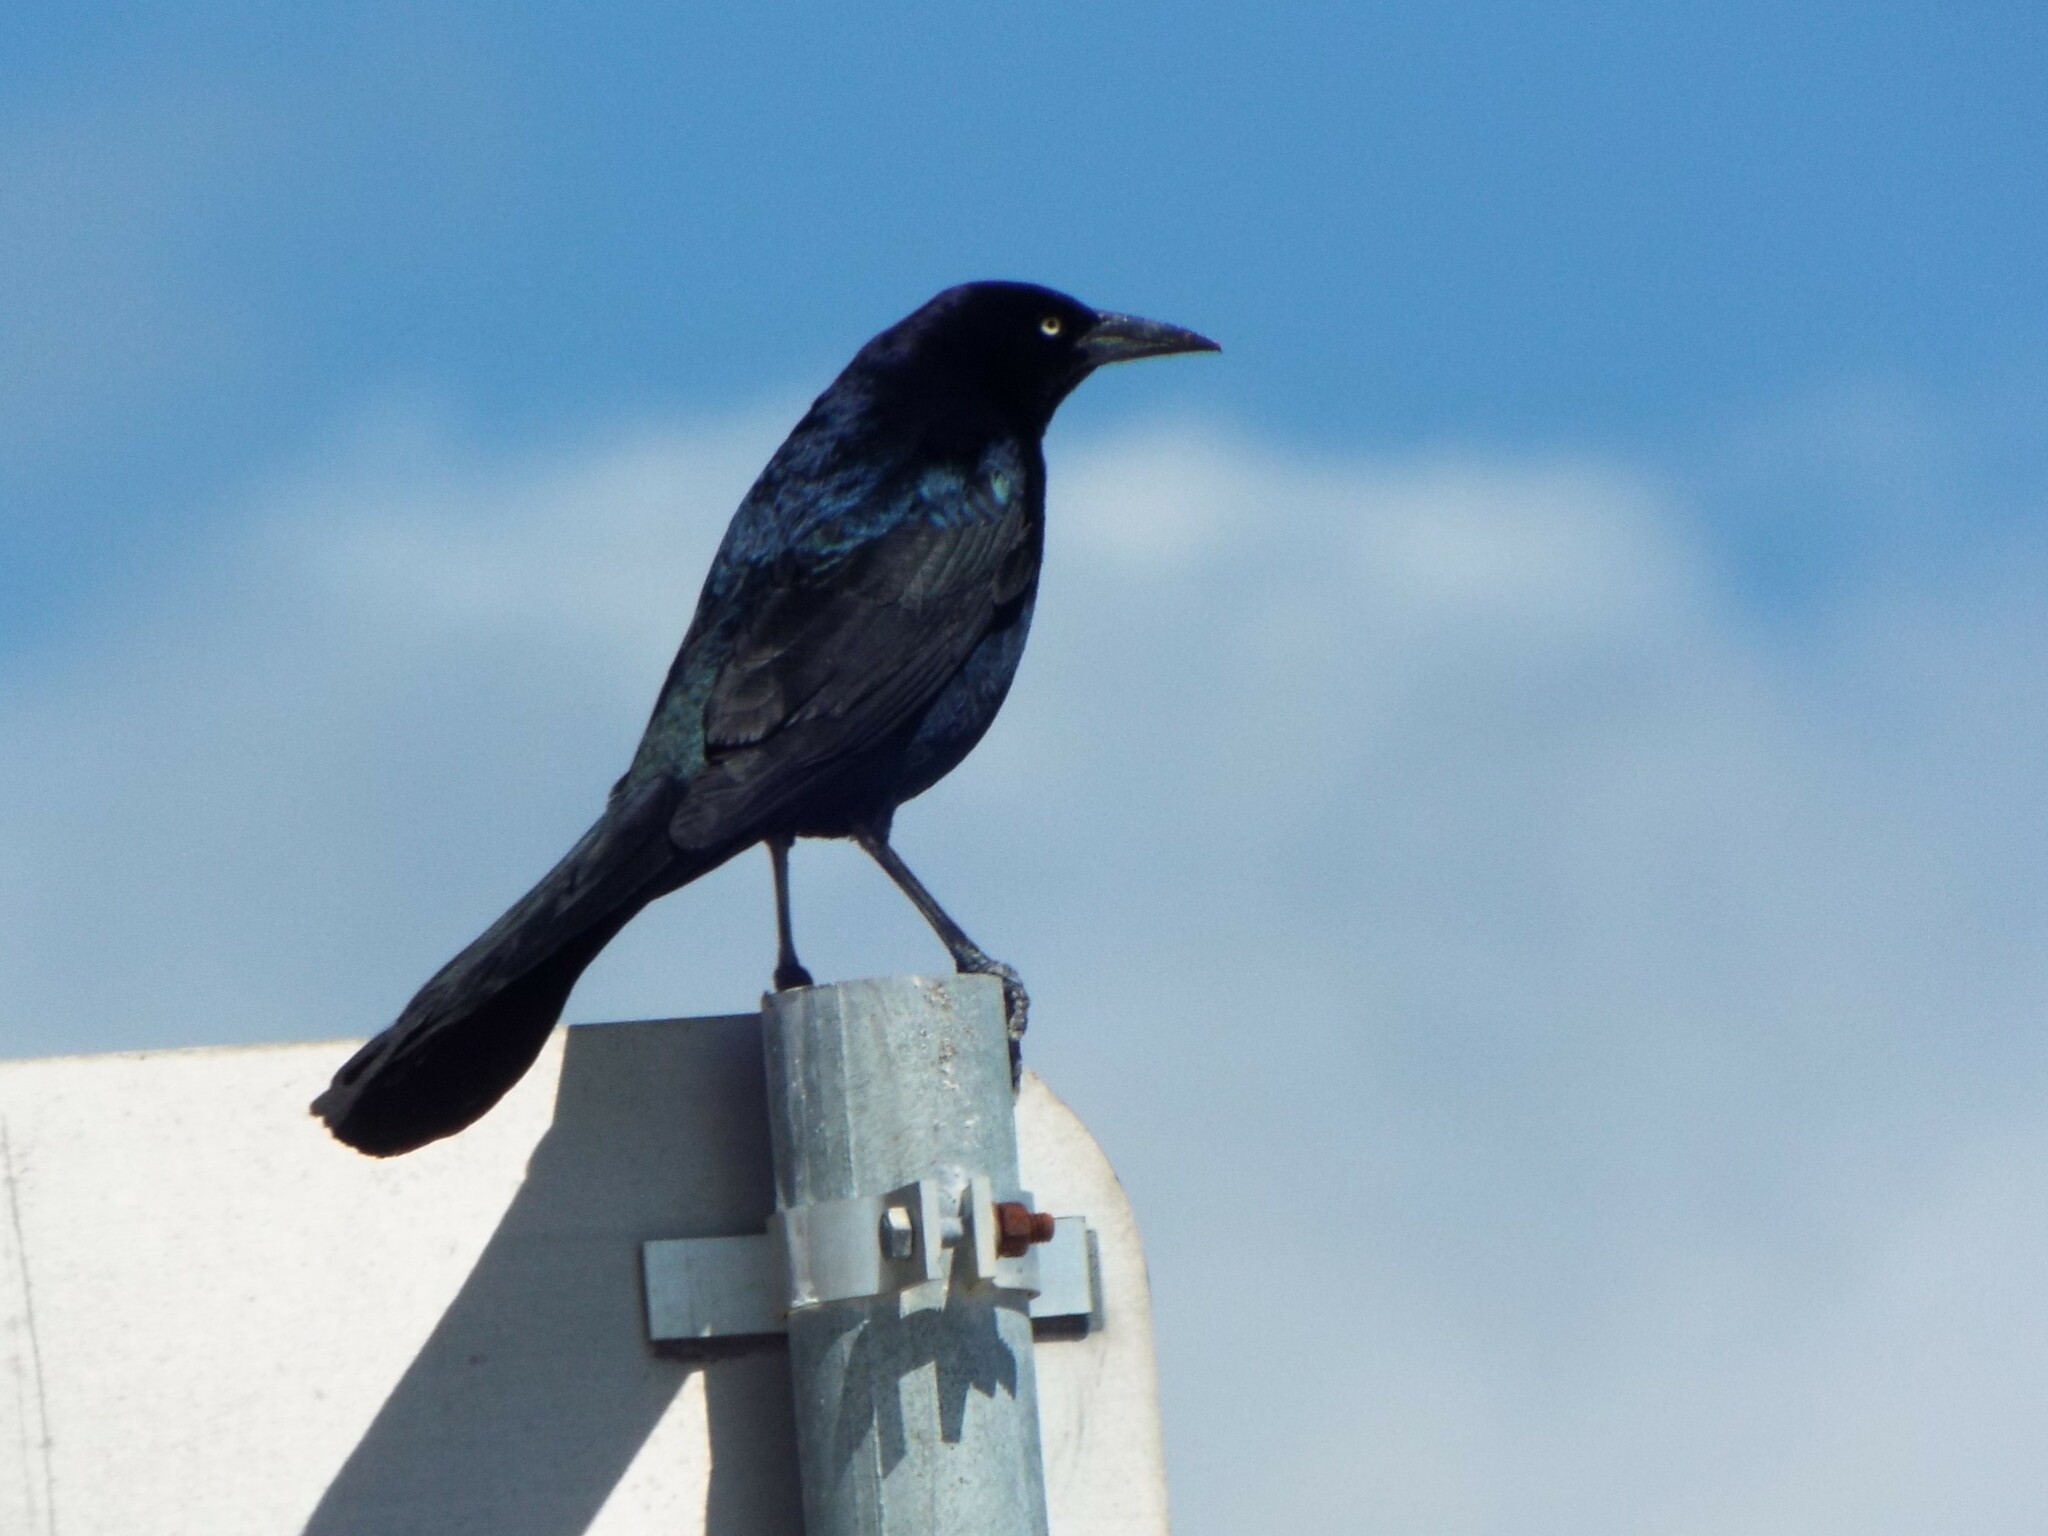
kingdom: Animalia
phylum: Chordata
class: Aves
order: Passeriformes
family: Icteridae
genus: Quiscalus
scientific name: Quiscalus major
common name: Boat-tailed grackle
